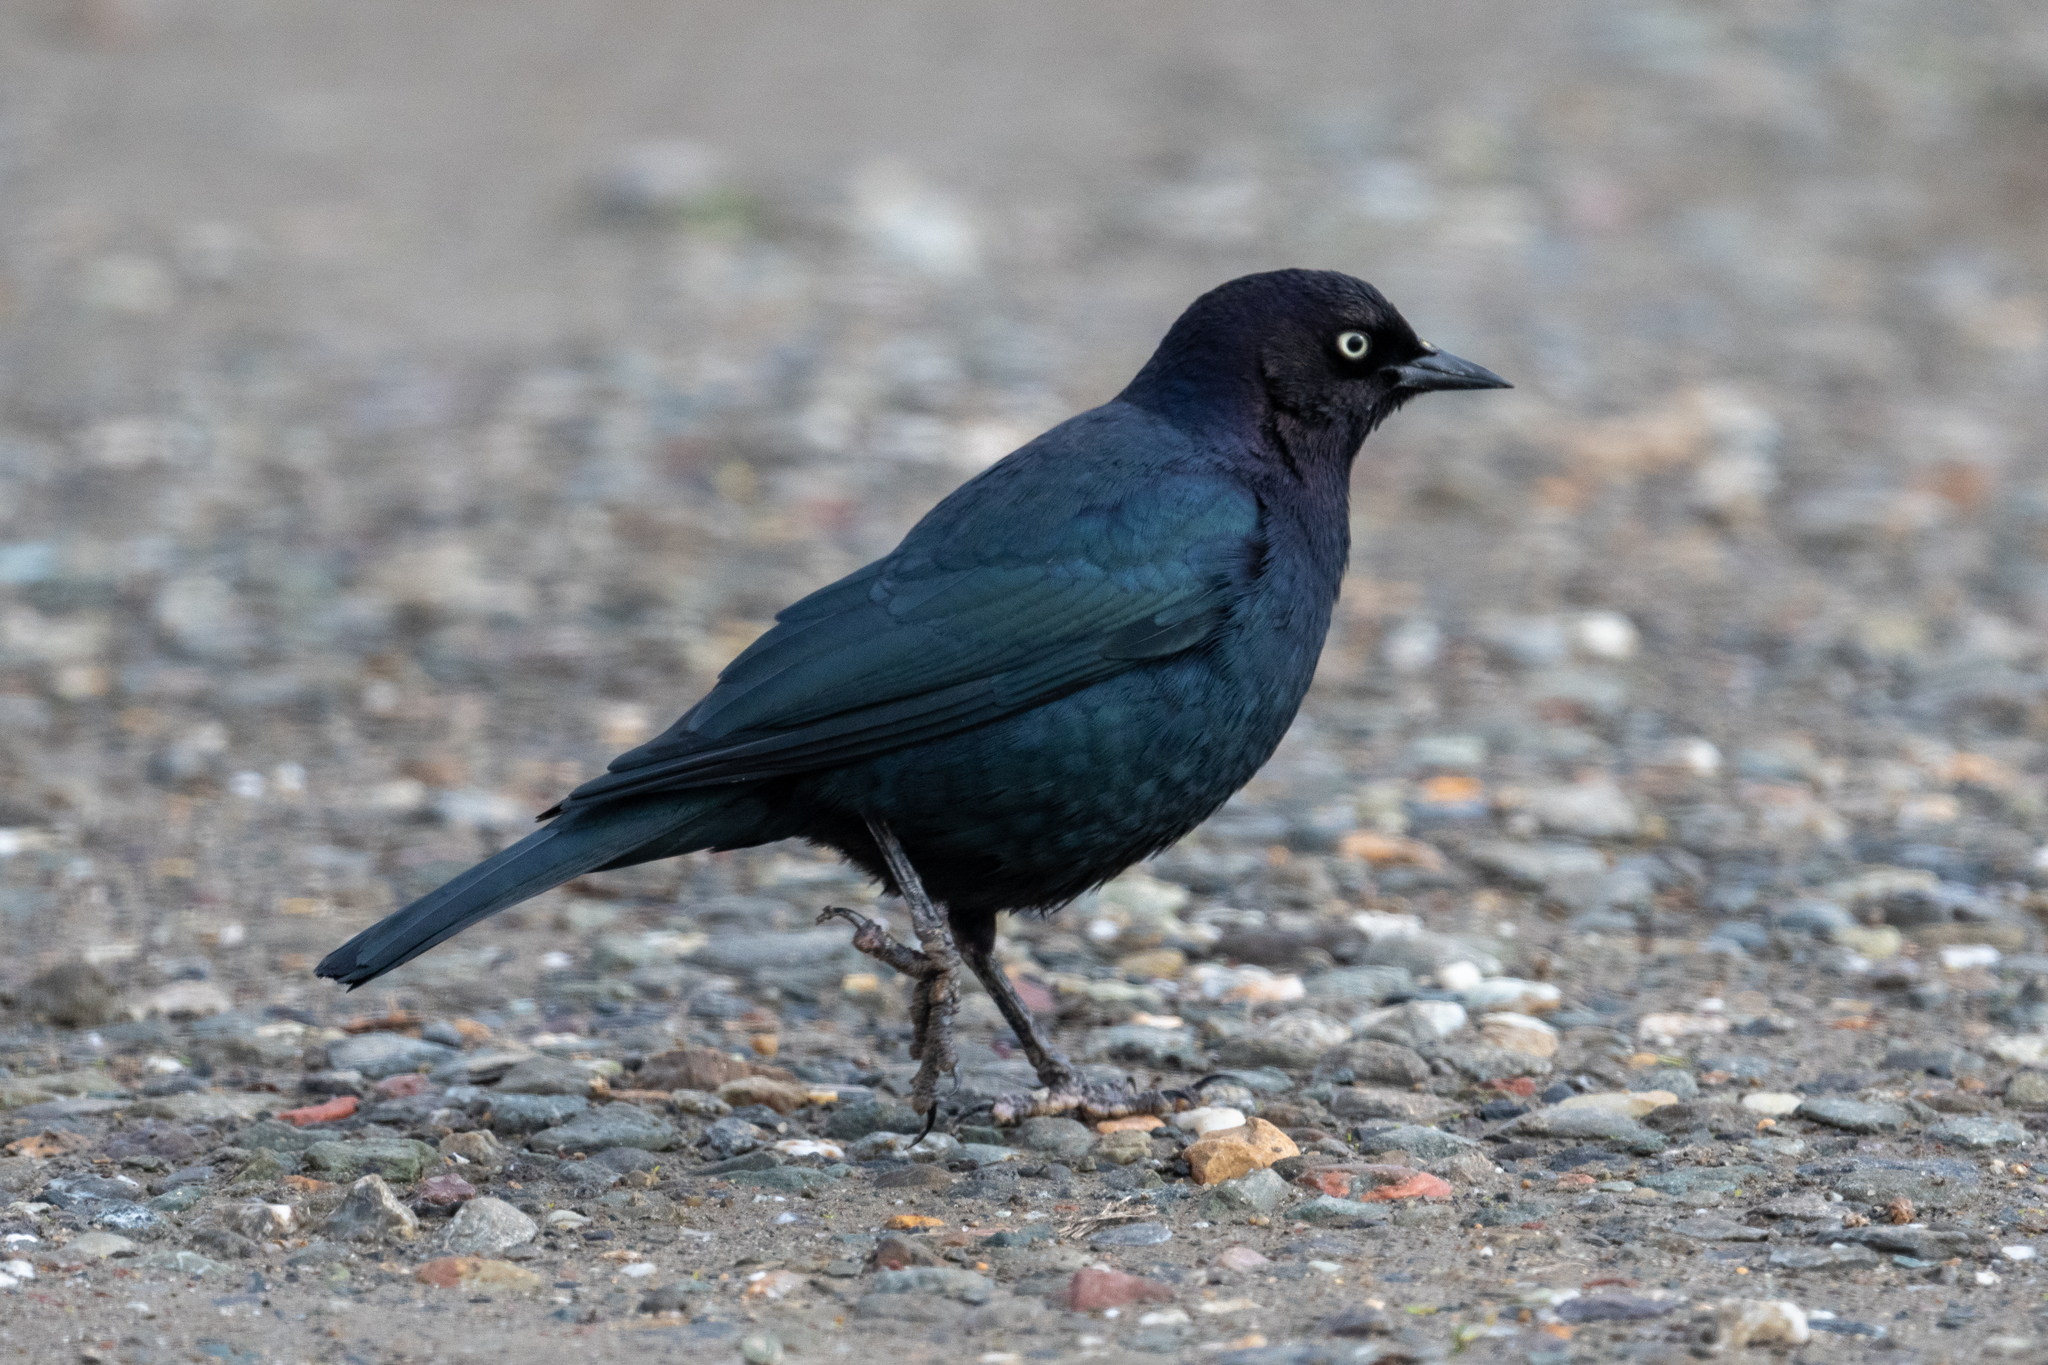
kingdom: Animalia
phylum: Chordata
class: Aves
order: Passeriformes
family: Icteridae
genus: Euphagus
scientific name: Euphagus cyanocephalus
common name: Brewer's blackbird
